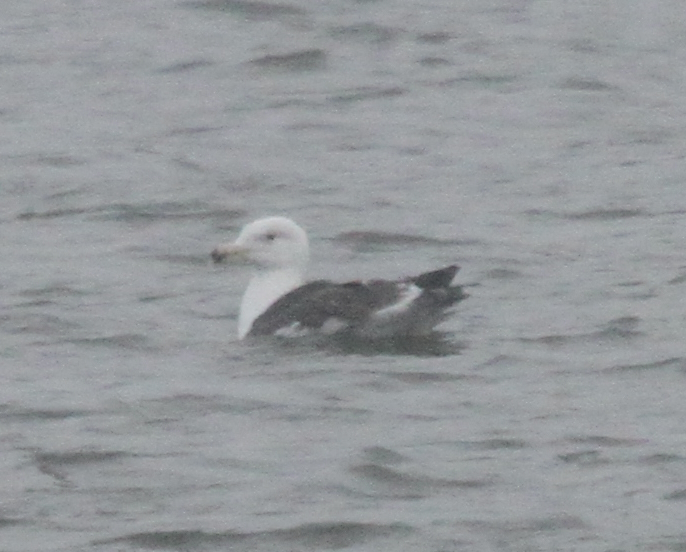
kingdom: Animalia
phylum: Chordata
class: Aves
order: Charadriiformes
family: Laridae
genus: Larus
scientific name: Larus marinus
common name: Great black-backed gull
